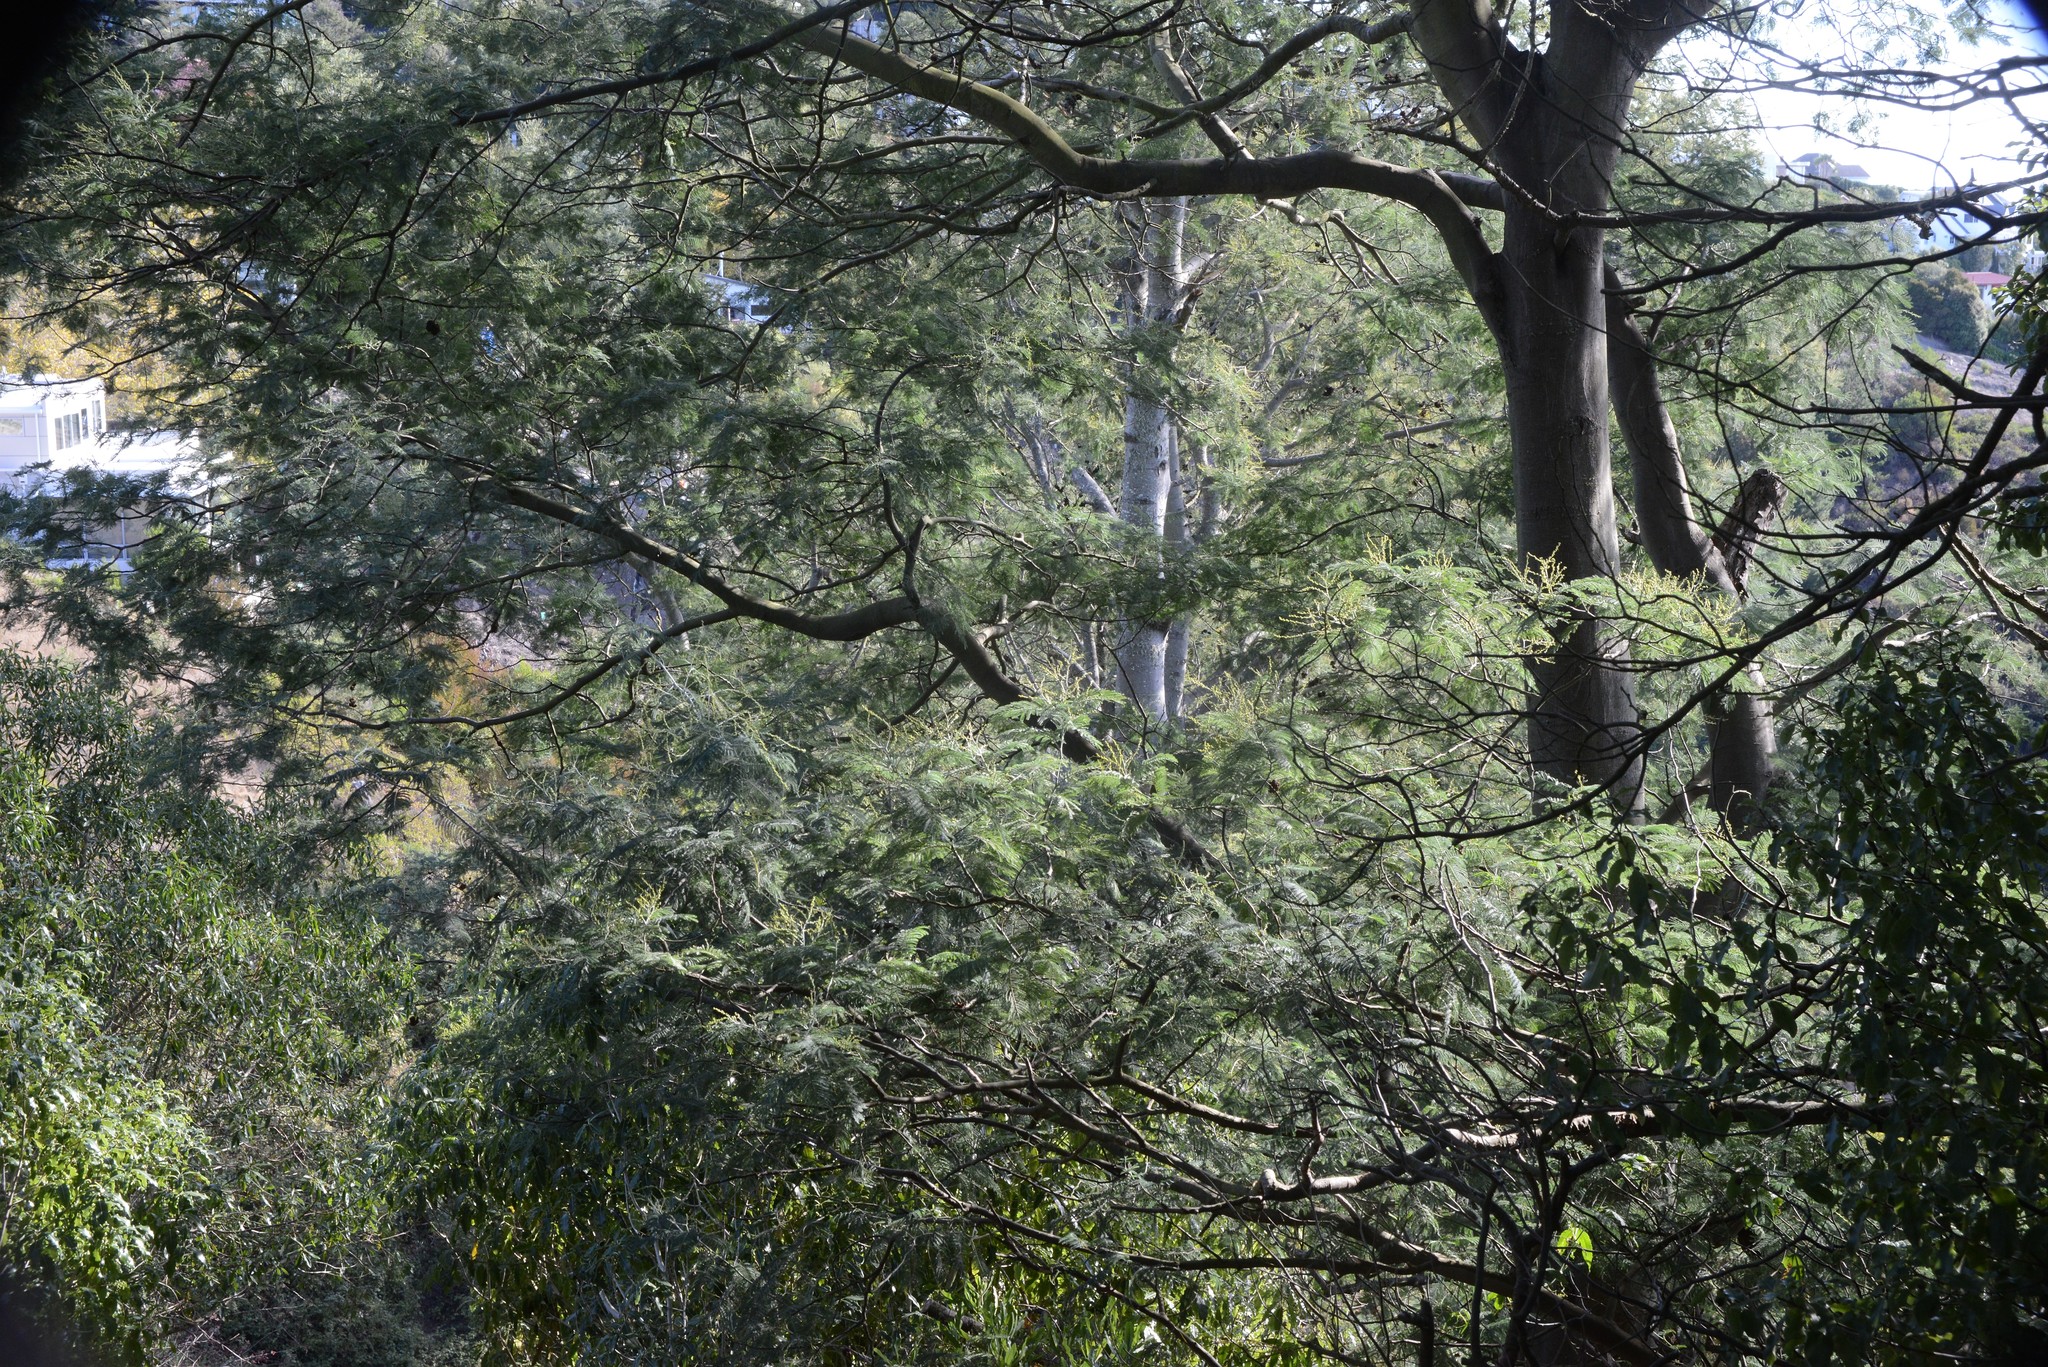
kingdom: Plantae
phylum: Tracheophyta
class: Magnoliopsida
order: Fabales
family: Fabaceae
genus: Acacia
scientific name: Acacia dealbata
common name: Silver wattle
